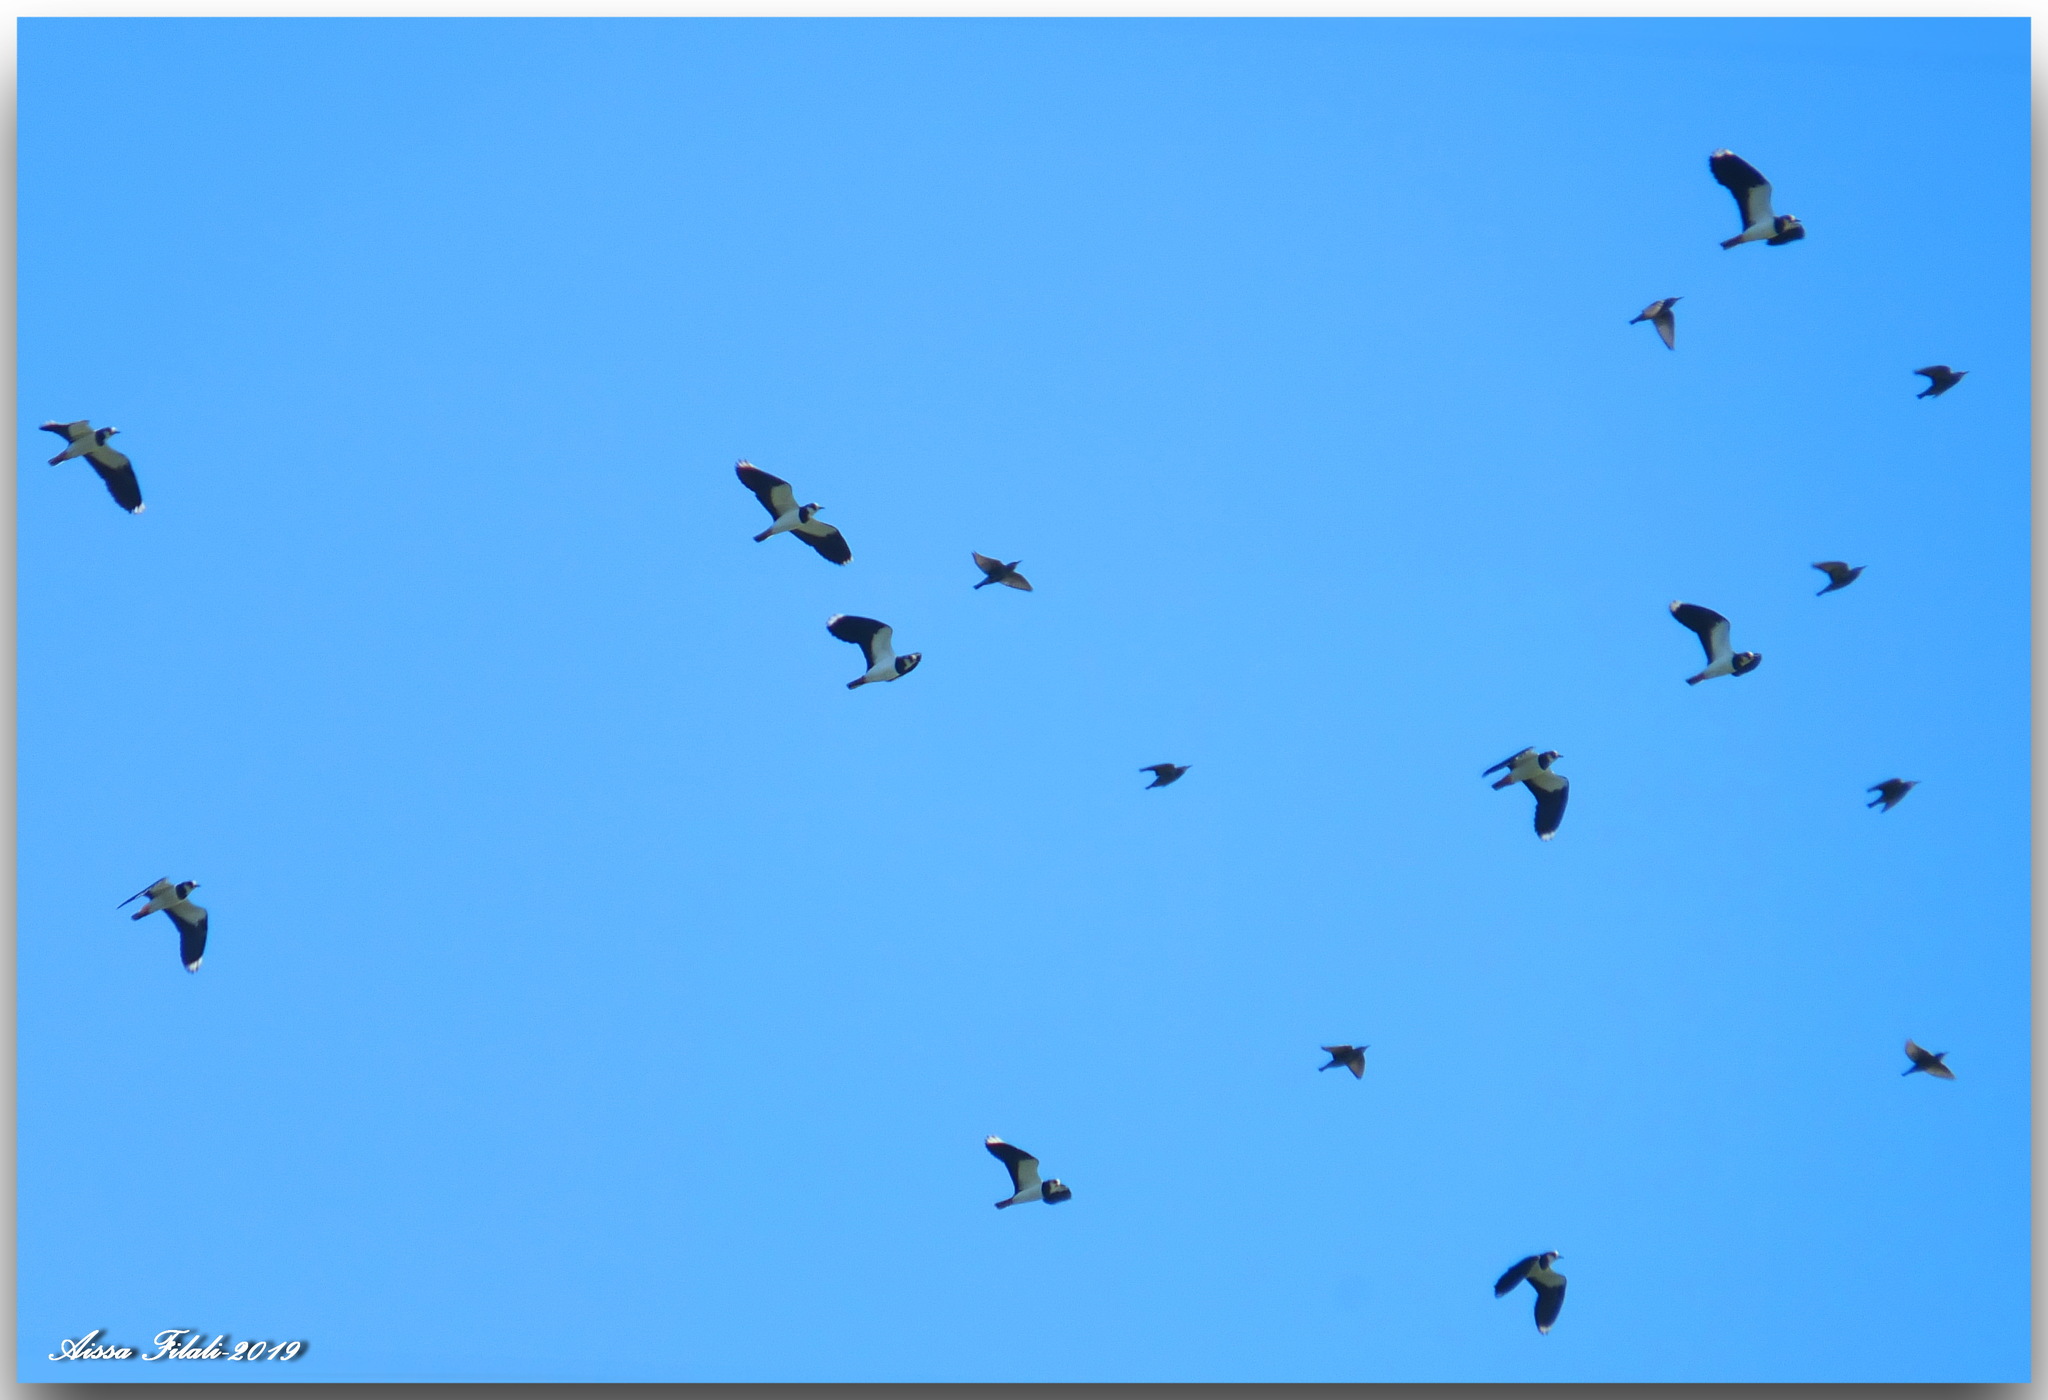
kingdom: Animalia
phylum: Chordata
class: Aves
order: Charadriiformes
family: Charadriidae
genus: Vanellus
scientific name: Vanellus vanellus
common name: Northern lapwing
